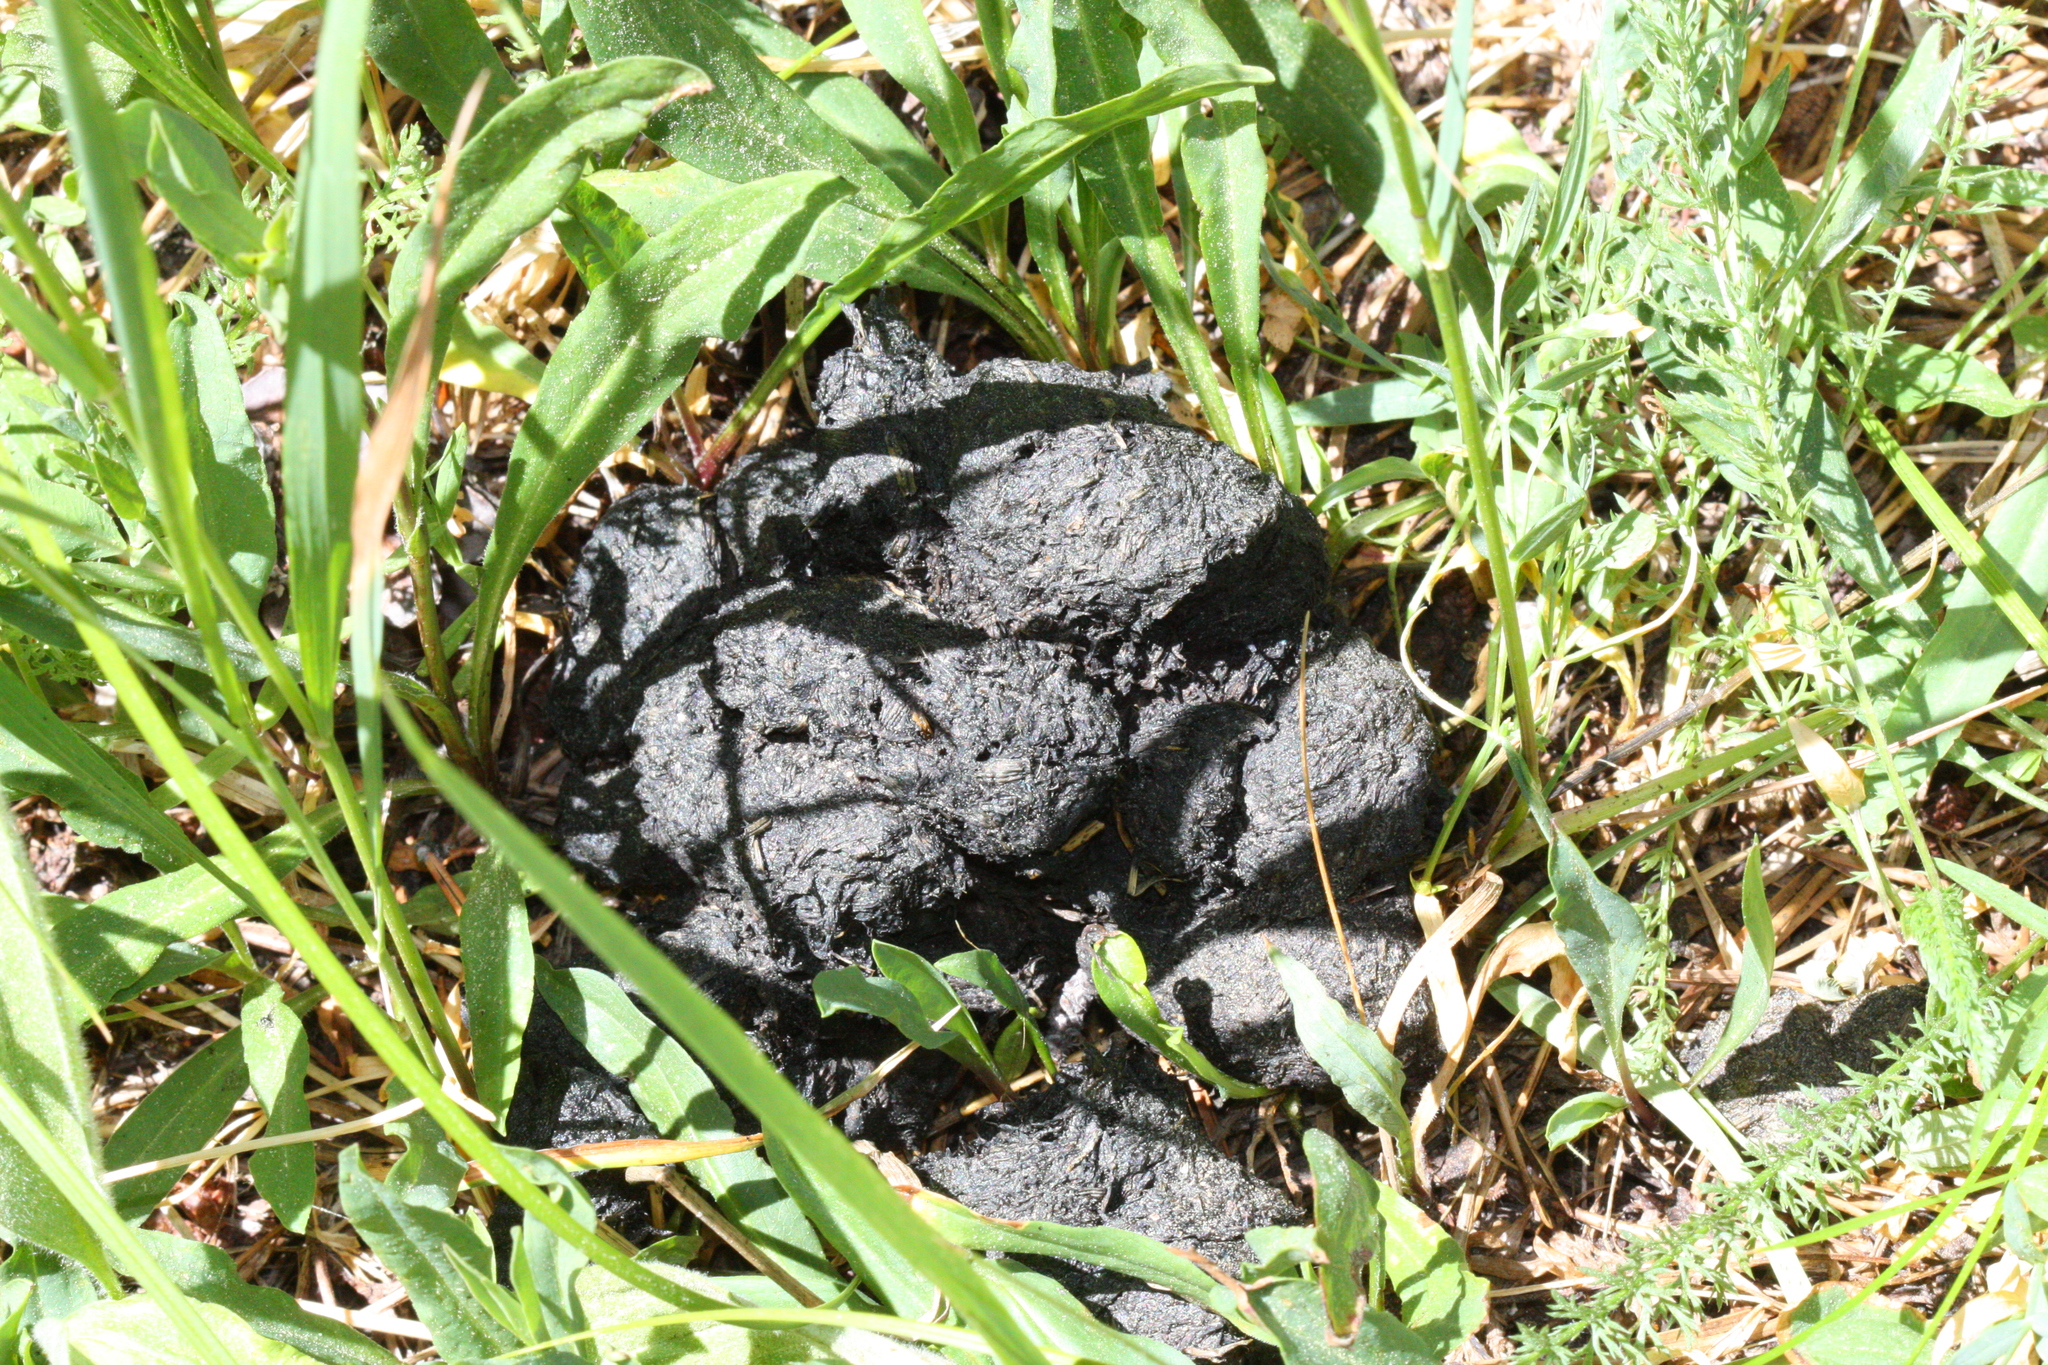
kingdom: Animalia
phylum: Chordata
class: Mammalia
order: Carnivora
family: Ursidae
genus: Ursus
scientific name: Ursus americanus
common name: American black bear
